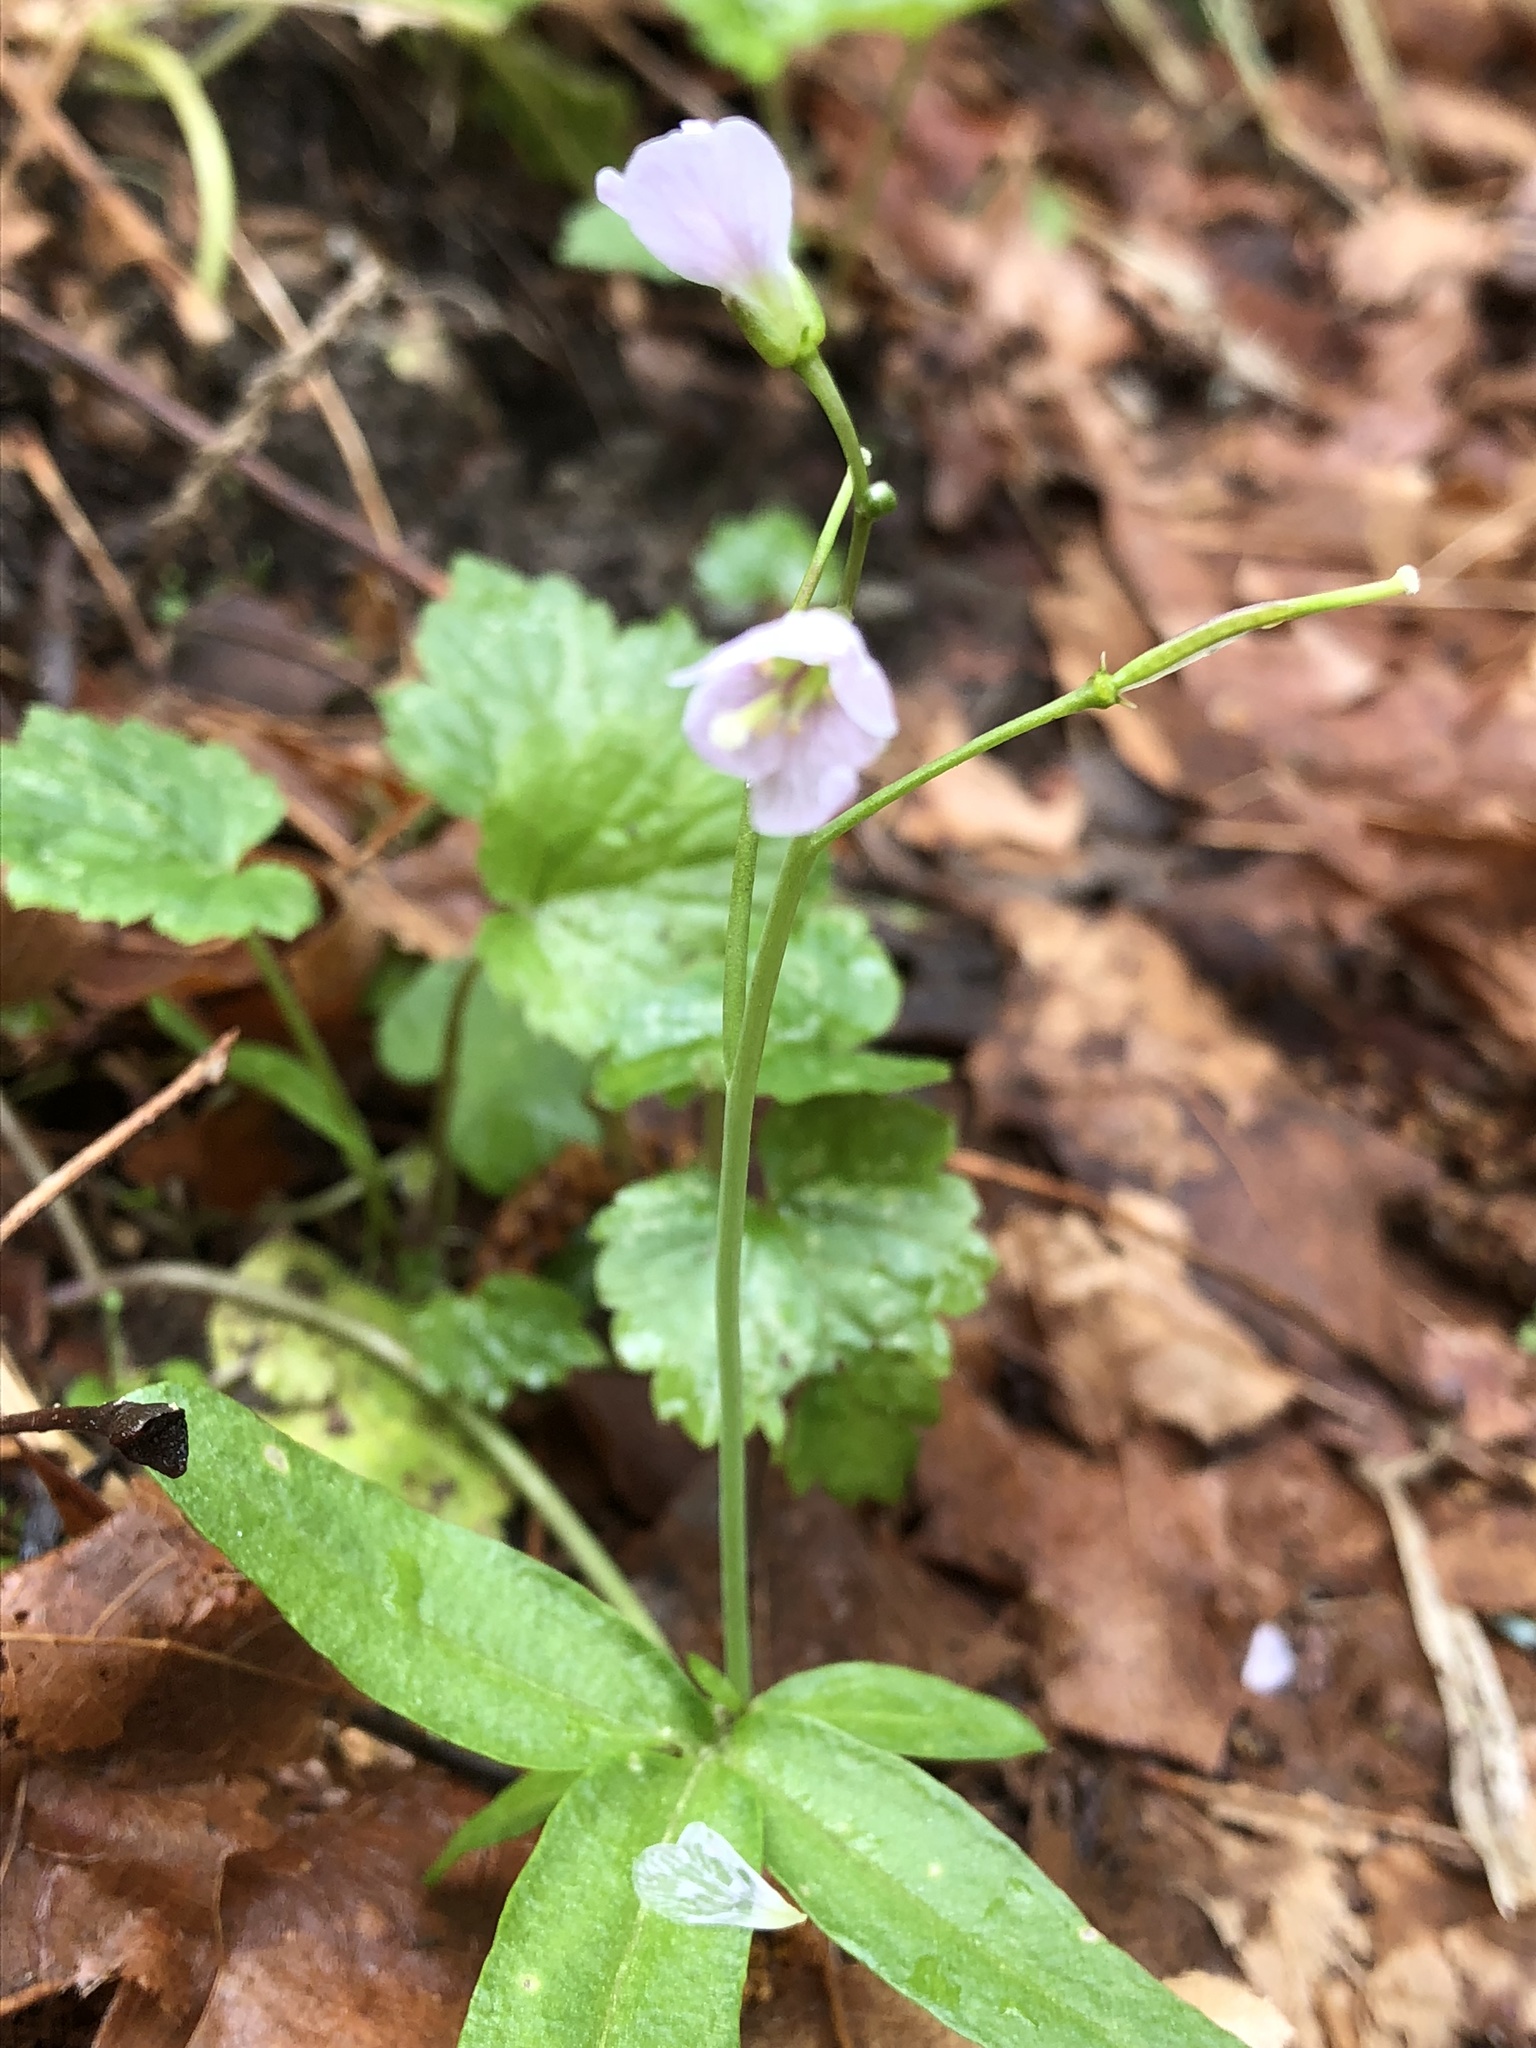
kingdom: Plantae
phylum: Tracheophyta
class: Magnoliopsida
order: Brassicales
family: Brassicaceae
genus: Cardamine
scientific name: Cardamine nuttallii
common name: Nuttall's toothwort
